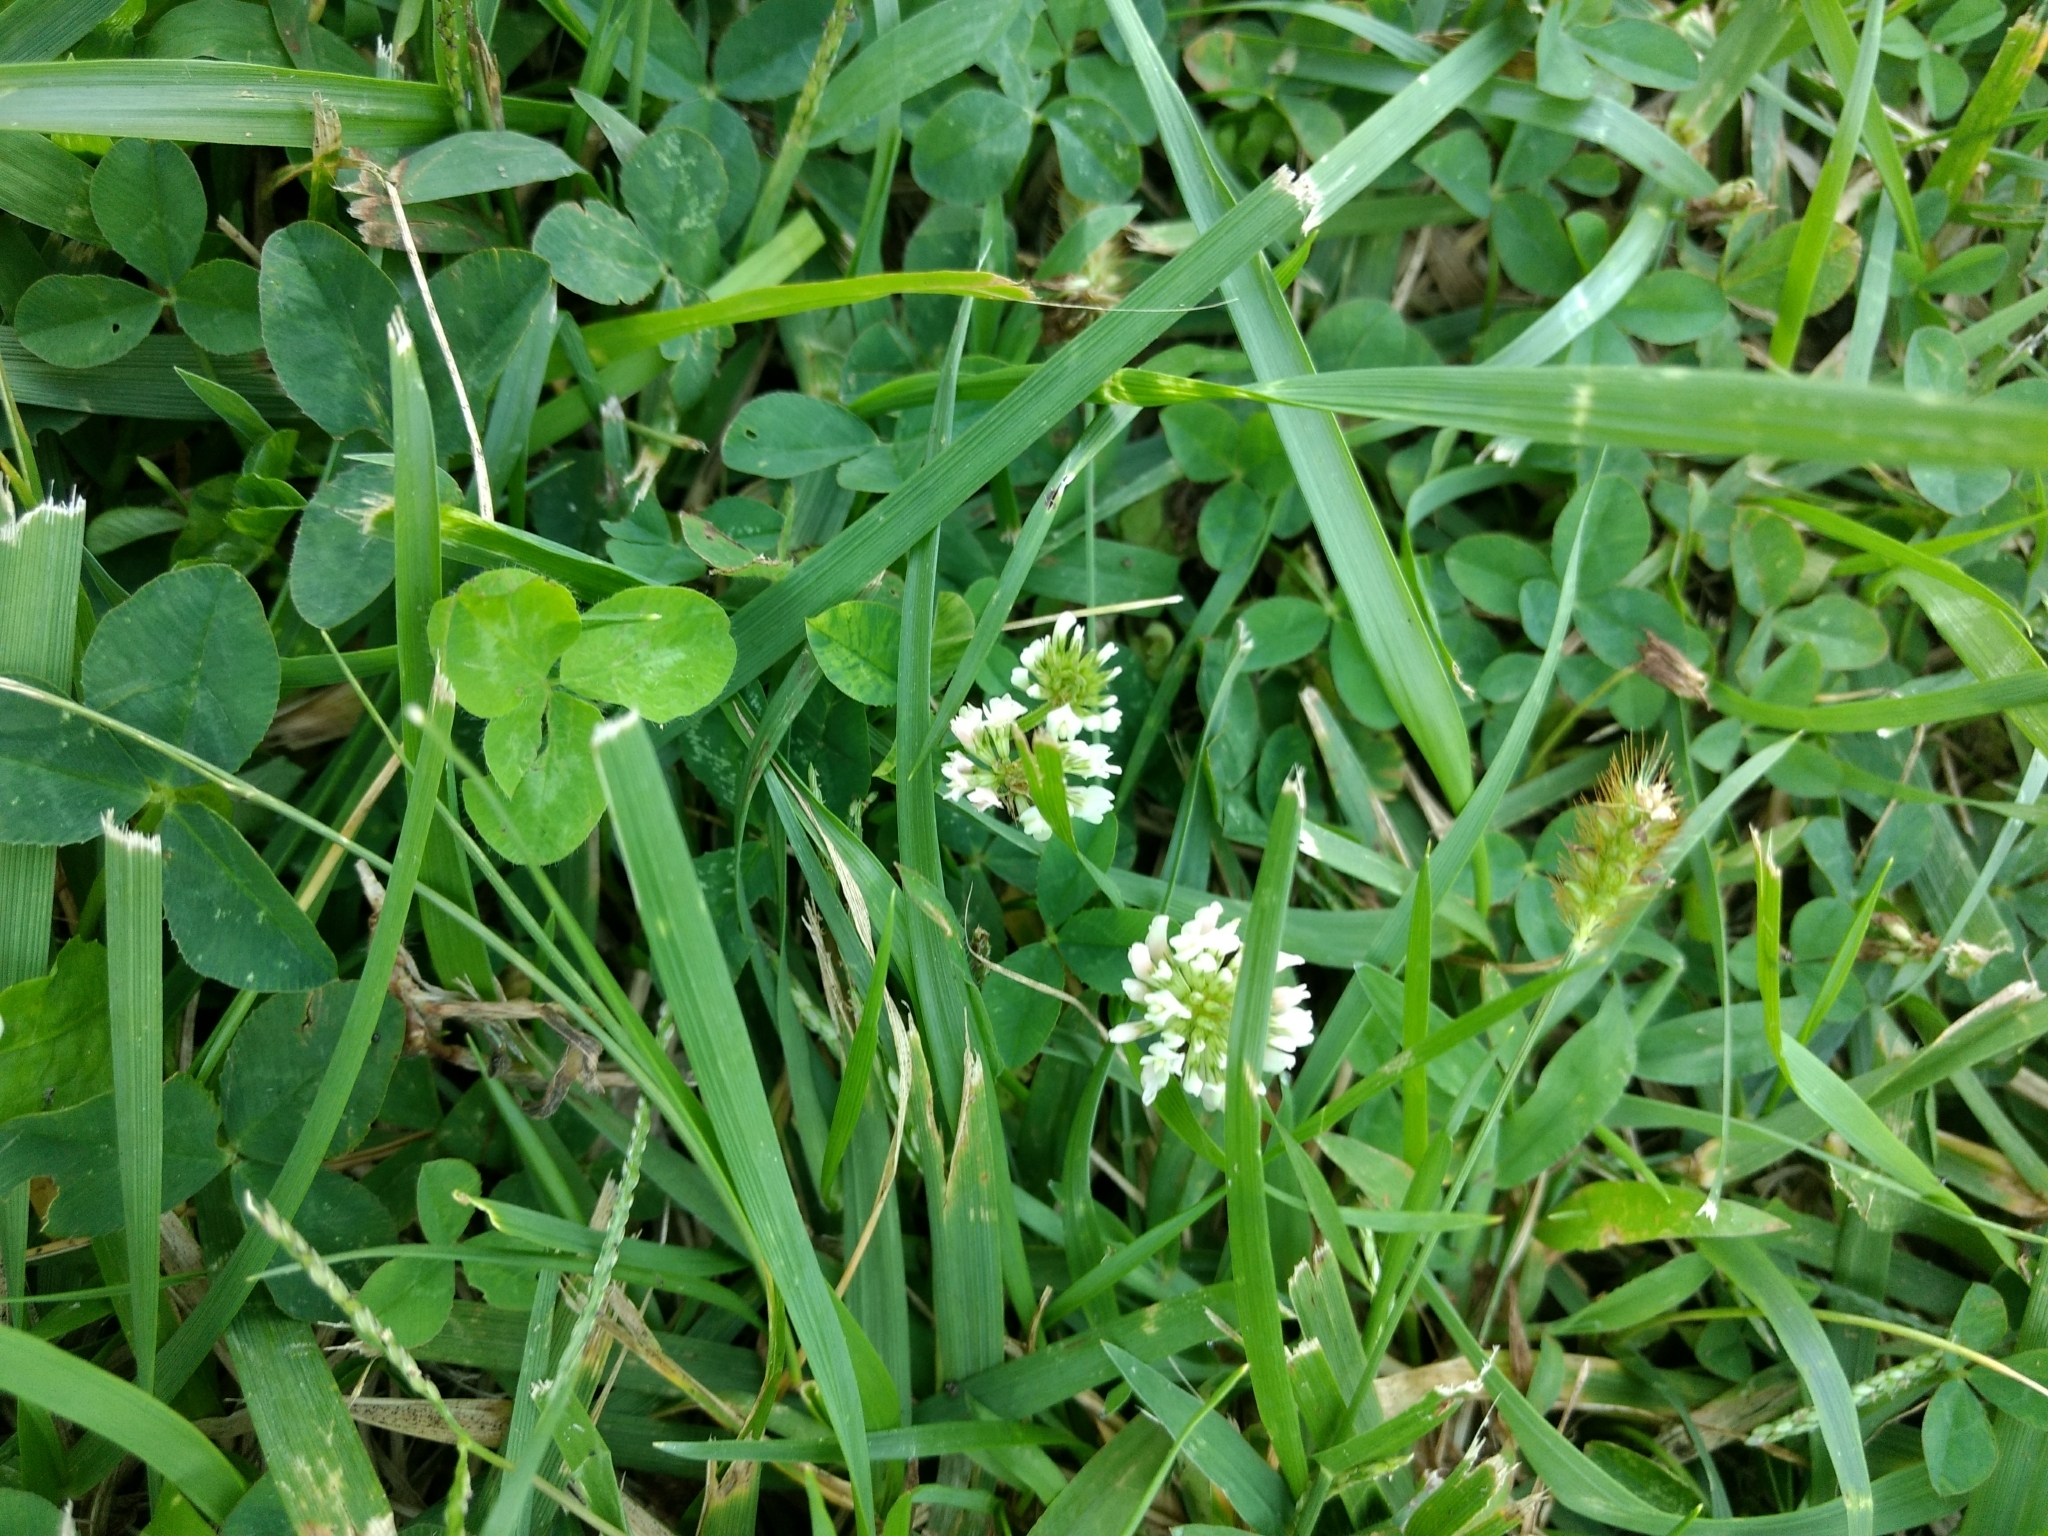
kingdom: Plantae
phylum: Tracheophyta
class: Magnoliopsida
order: Fabales
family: Fabaceae
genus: Trifolium
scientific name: Trifolium repens
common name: White clover
